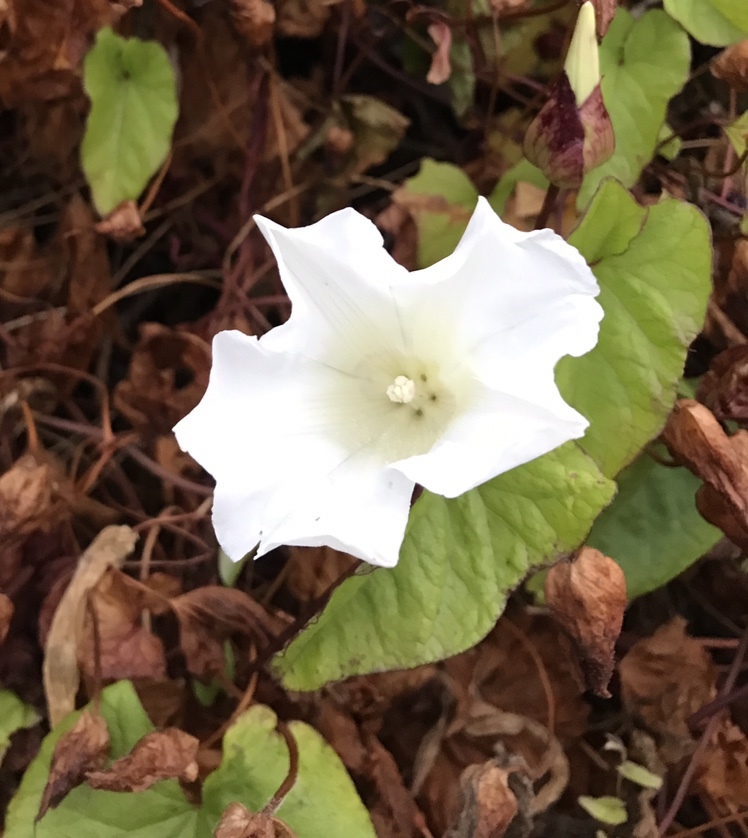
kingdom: Plantae
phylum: Tracheophyta
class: Magnoliopsida
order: Solanales
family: Convolvulaceae
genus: Calystegia
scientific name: Calystegia sepium
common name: Hedge bindweed
